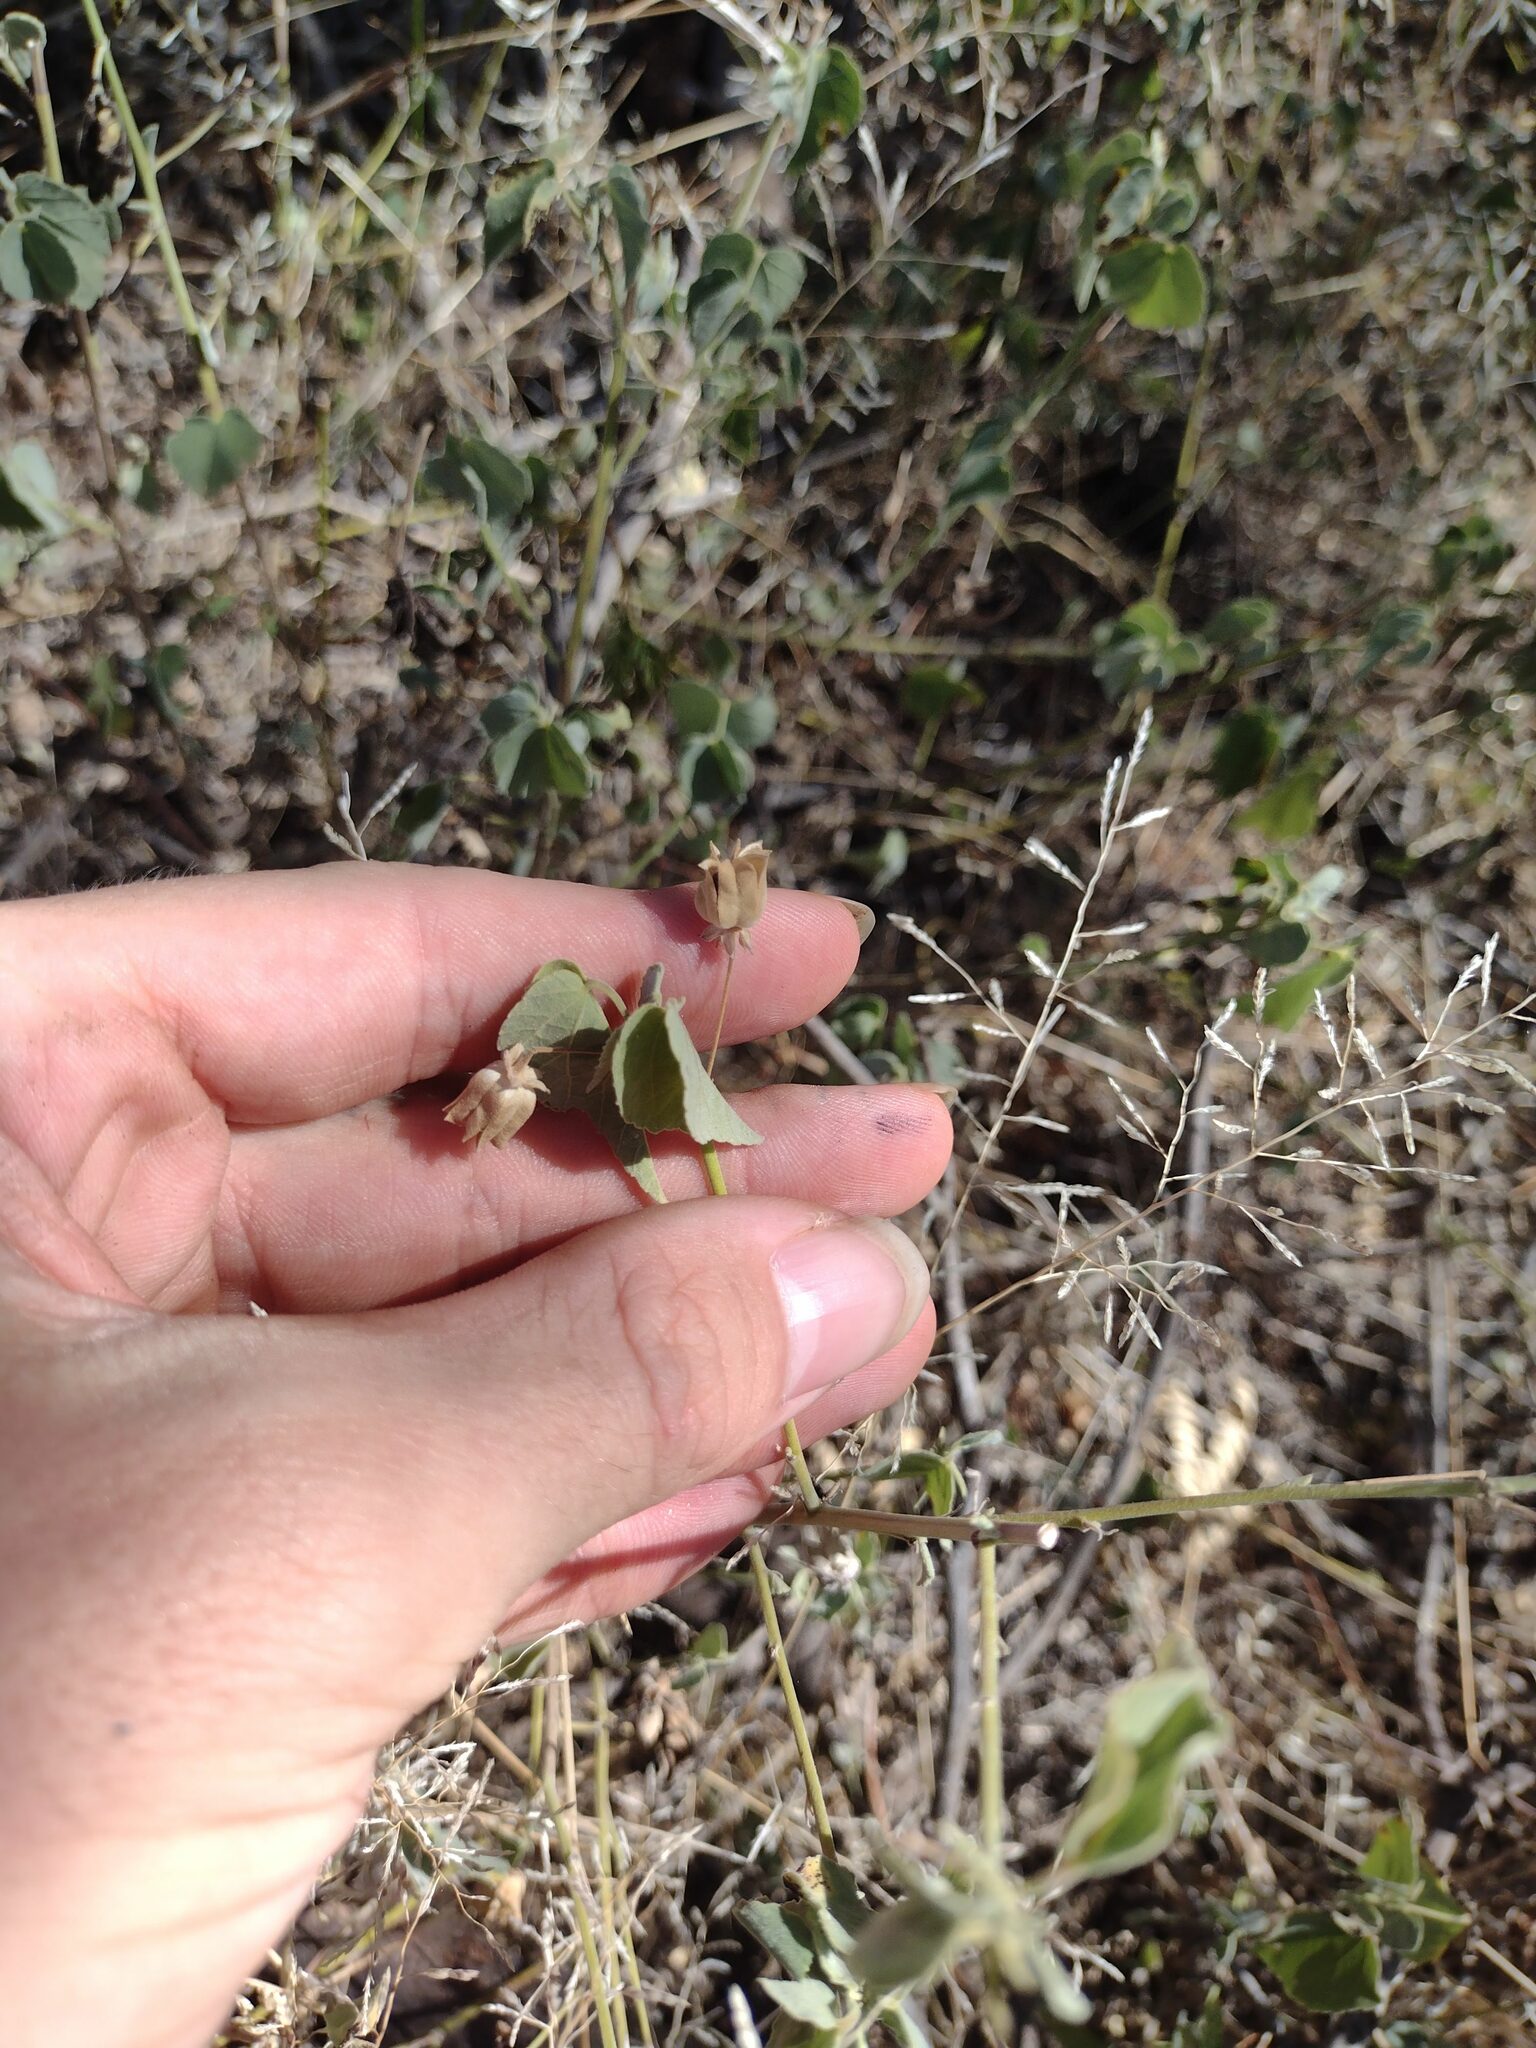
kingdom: Plantae
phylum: Tracheophyta
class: Magnoliopsida
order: Malvales
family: Malvaceae
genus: Abutilon
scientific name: Abutilon incanum
